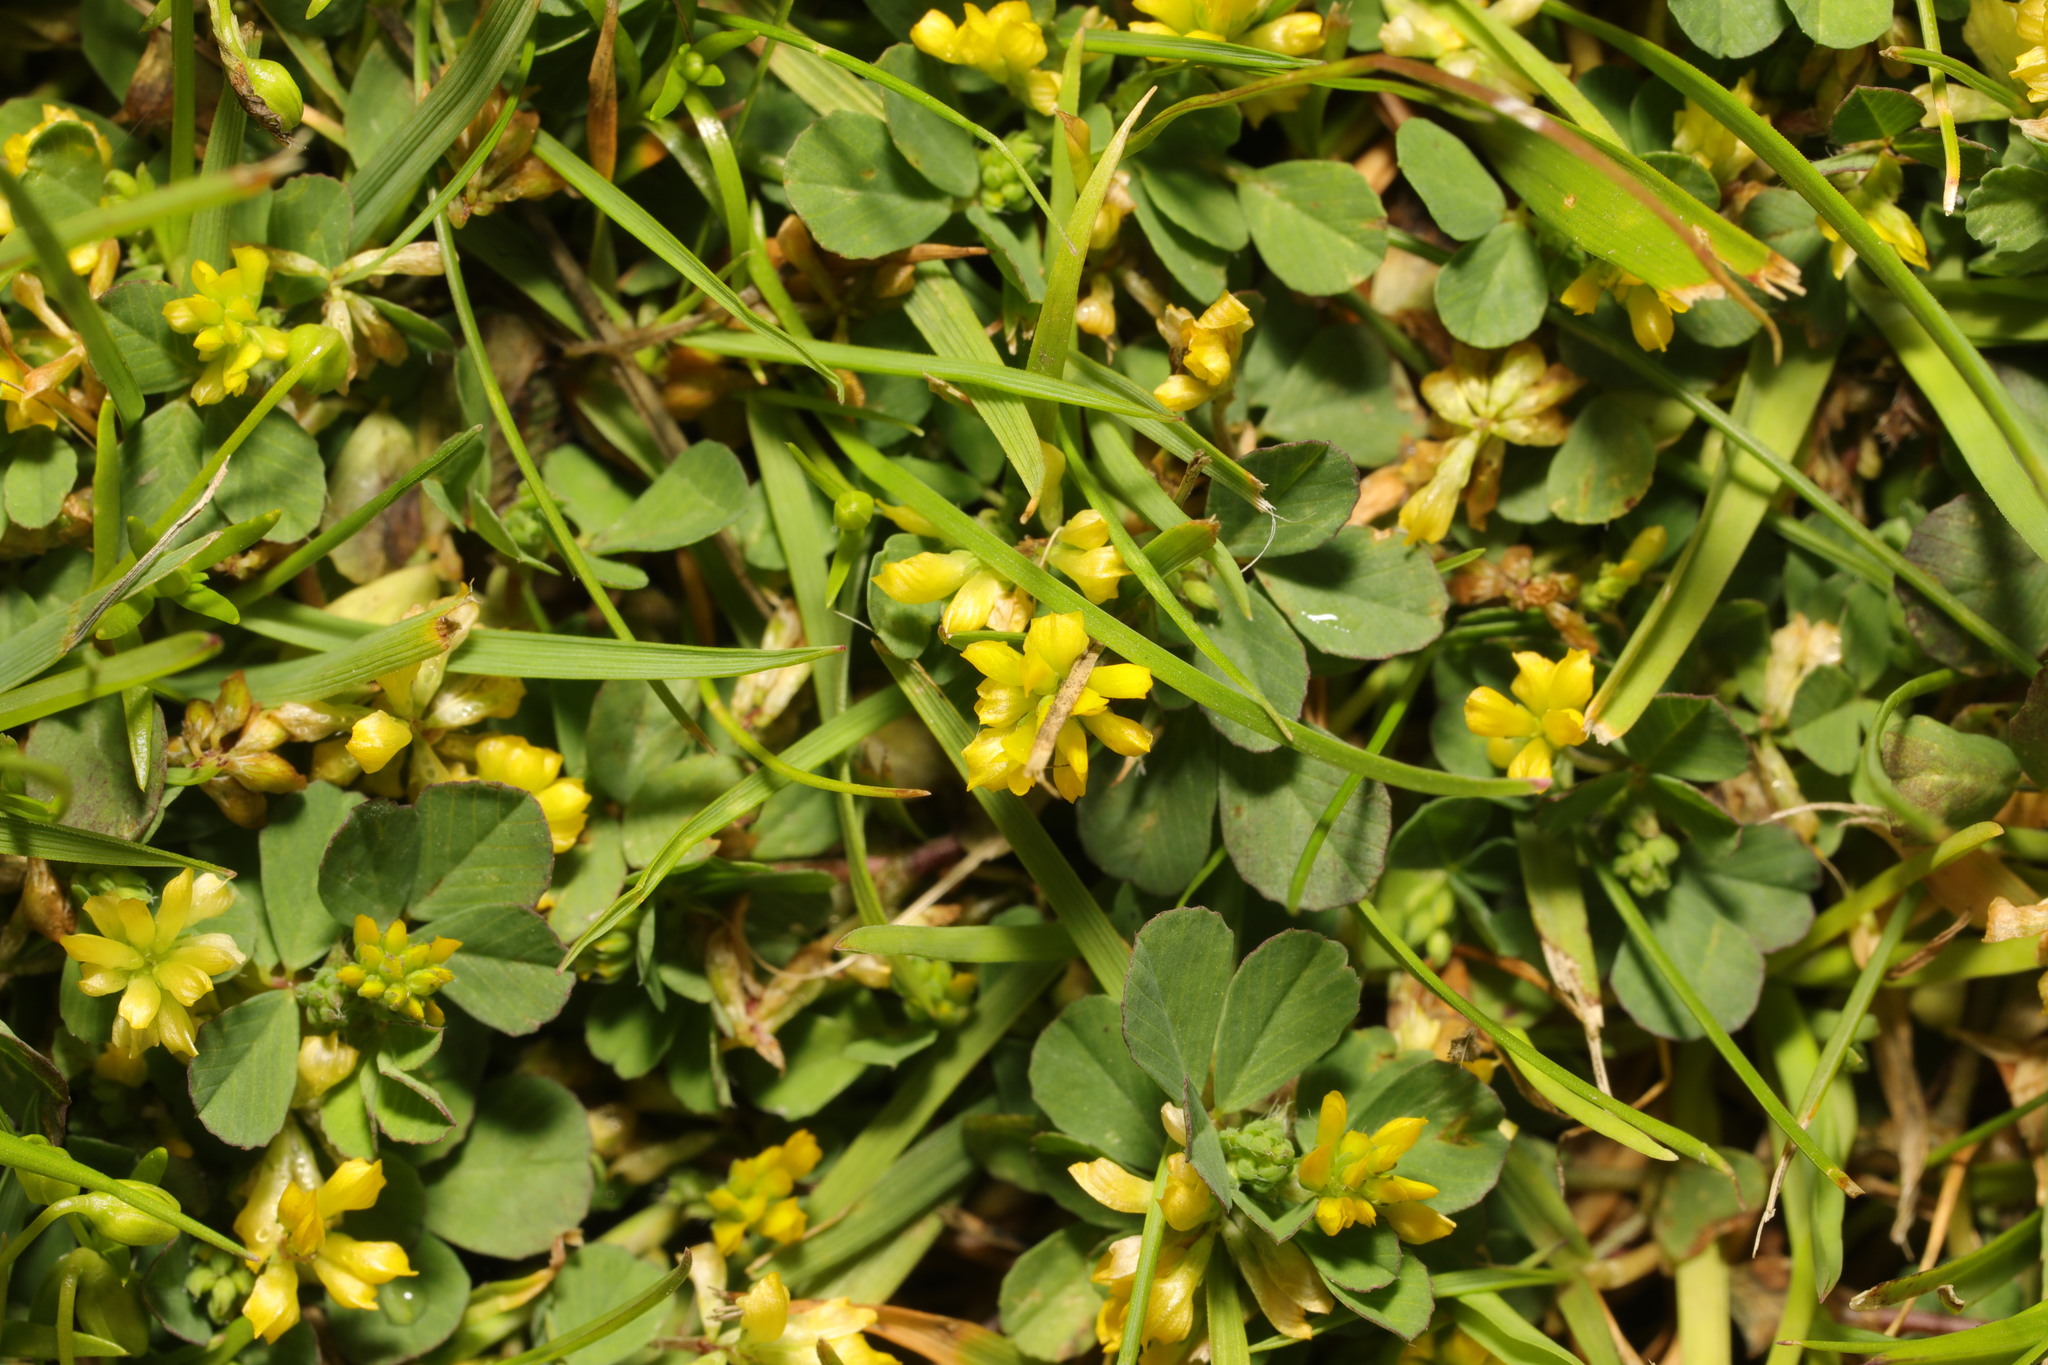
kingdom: Plantae
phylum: Tracheophyta
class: Magnoliopsida
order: Fabales
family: Fabaceae
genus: Trifolium
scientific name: Trifolium dubium
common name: Suckling clover
